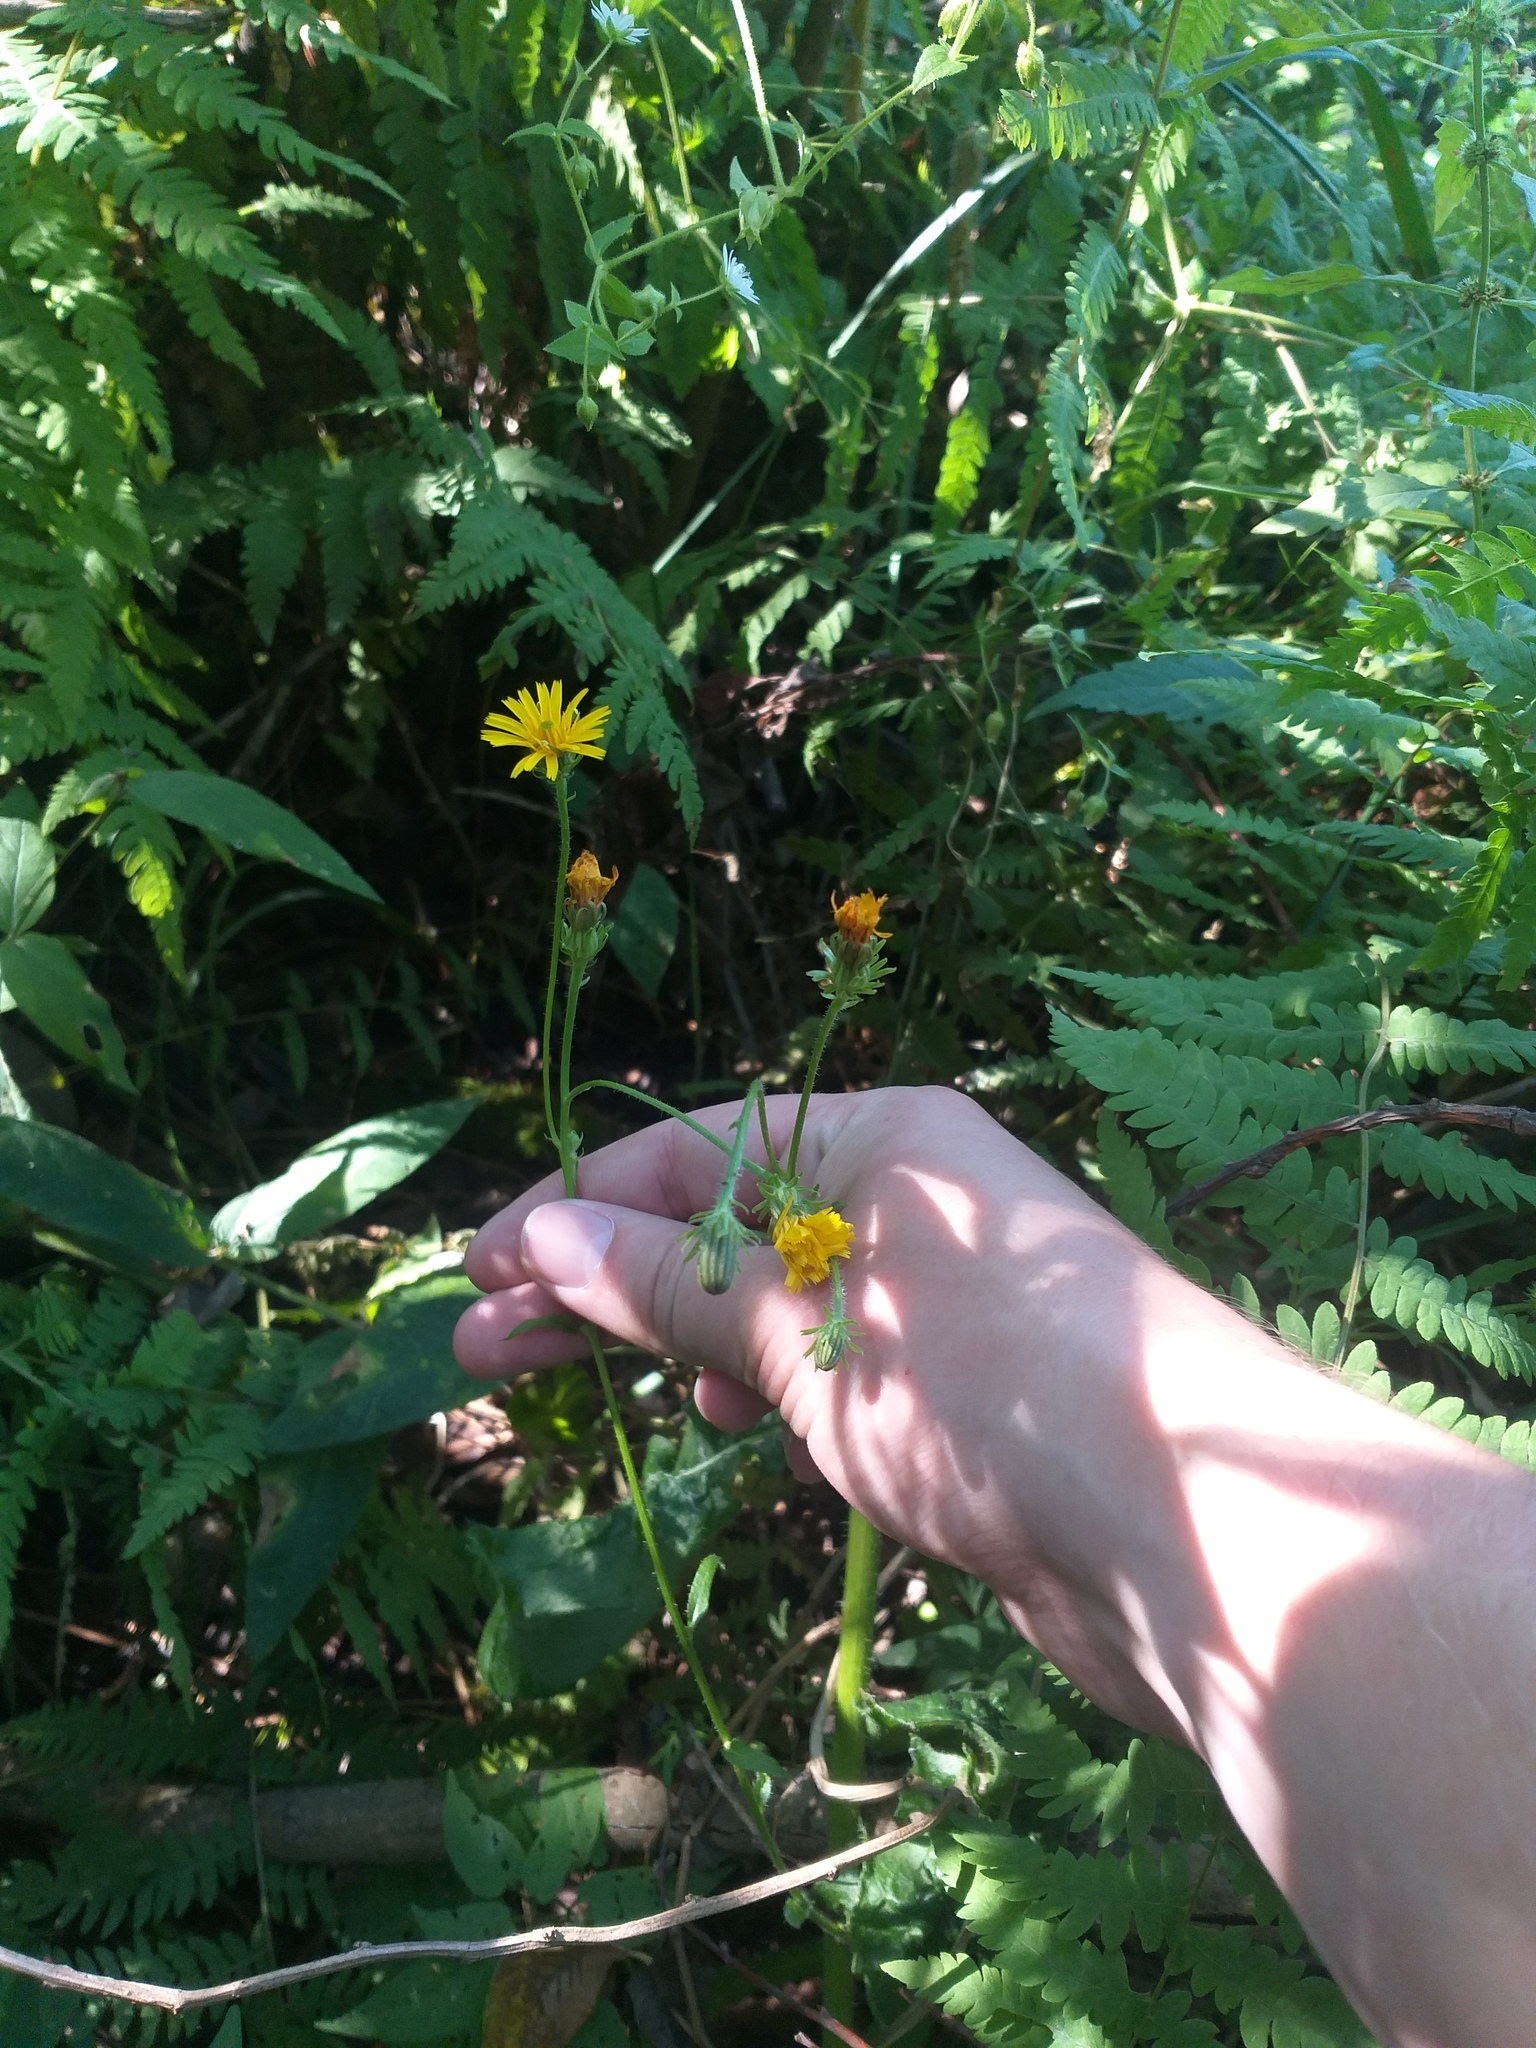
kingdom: Plantae
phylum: Tracheophyta
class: Magnoliopsida
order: Asterales
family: Asteraceae
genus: Picris
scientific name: Picris hieracioides
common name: Hawkweed oxtongue
